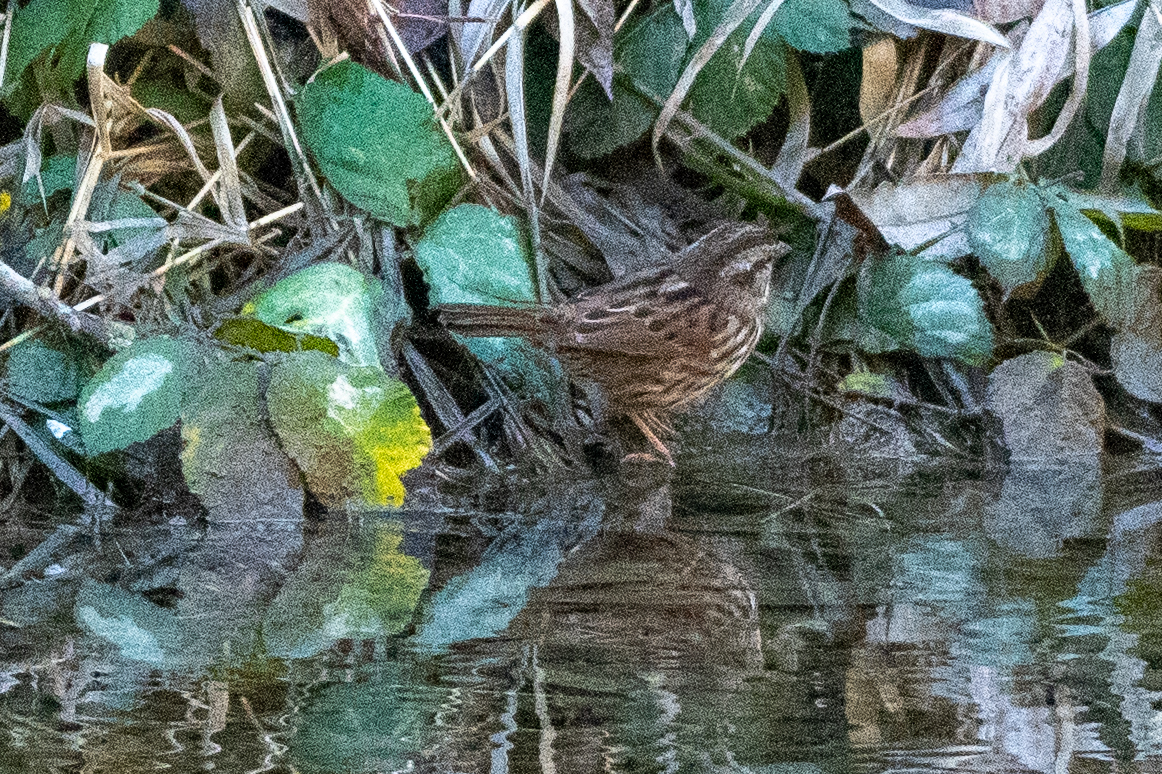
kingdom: Animalia
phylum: Chordata
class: Aves
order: Passeriformes
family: Passerellidae
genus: Melospiza
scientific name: Melospiza melodia
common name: Song sparrow
